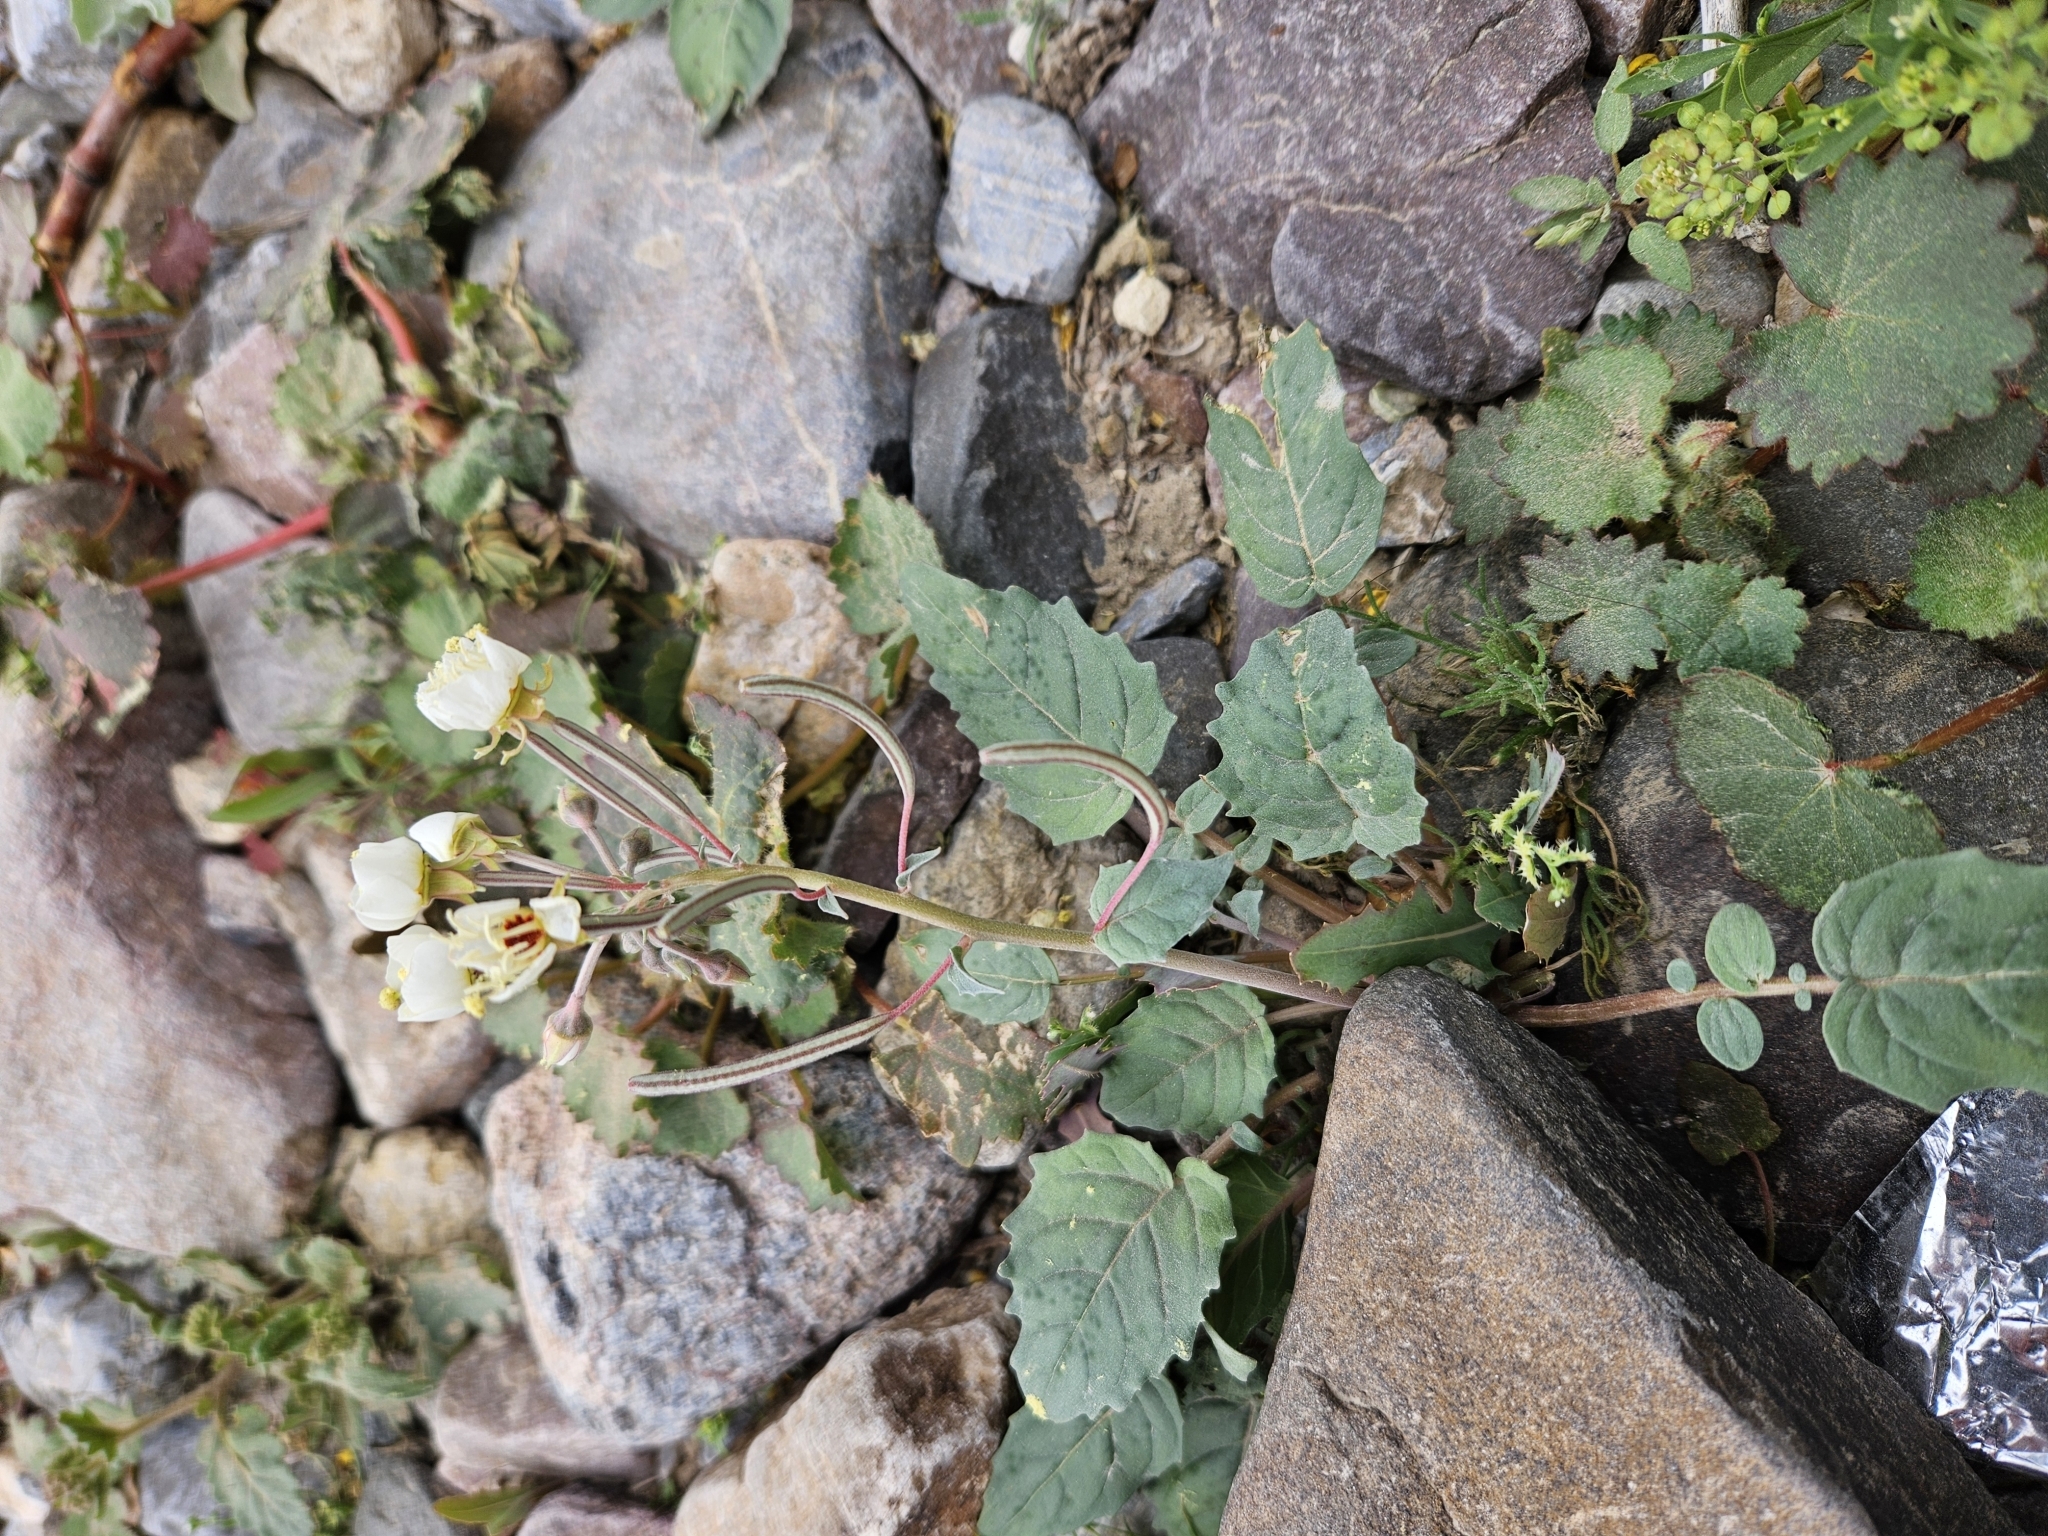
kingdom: Plantae
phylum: Tracheophyta
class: Magnoliopsida
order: Myrtales
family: Onagraceae
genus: Chylismia
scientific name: Chylismia claviformis
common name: Browneyes
